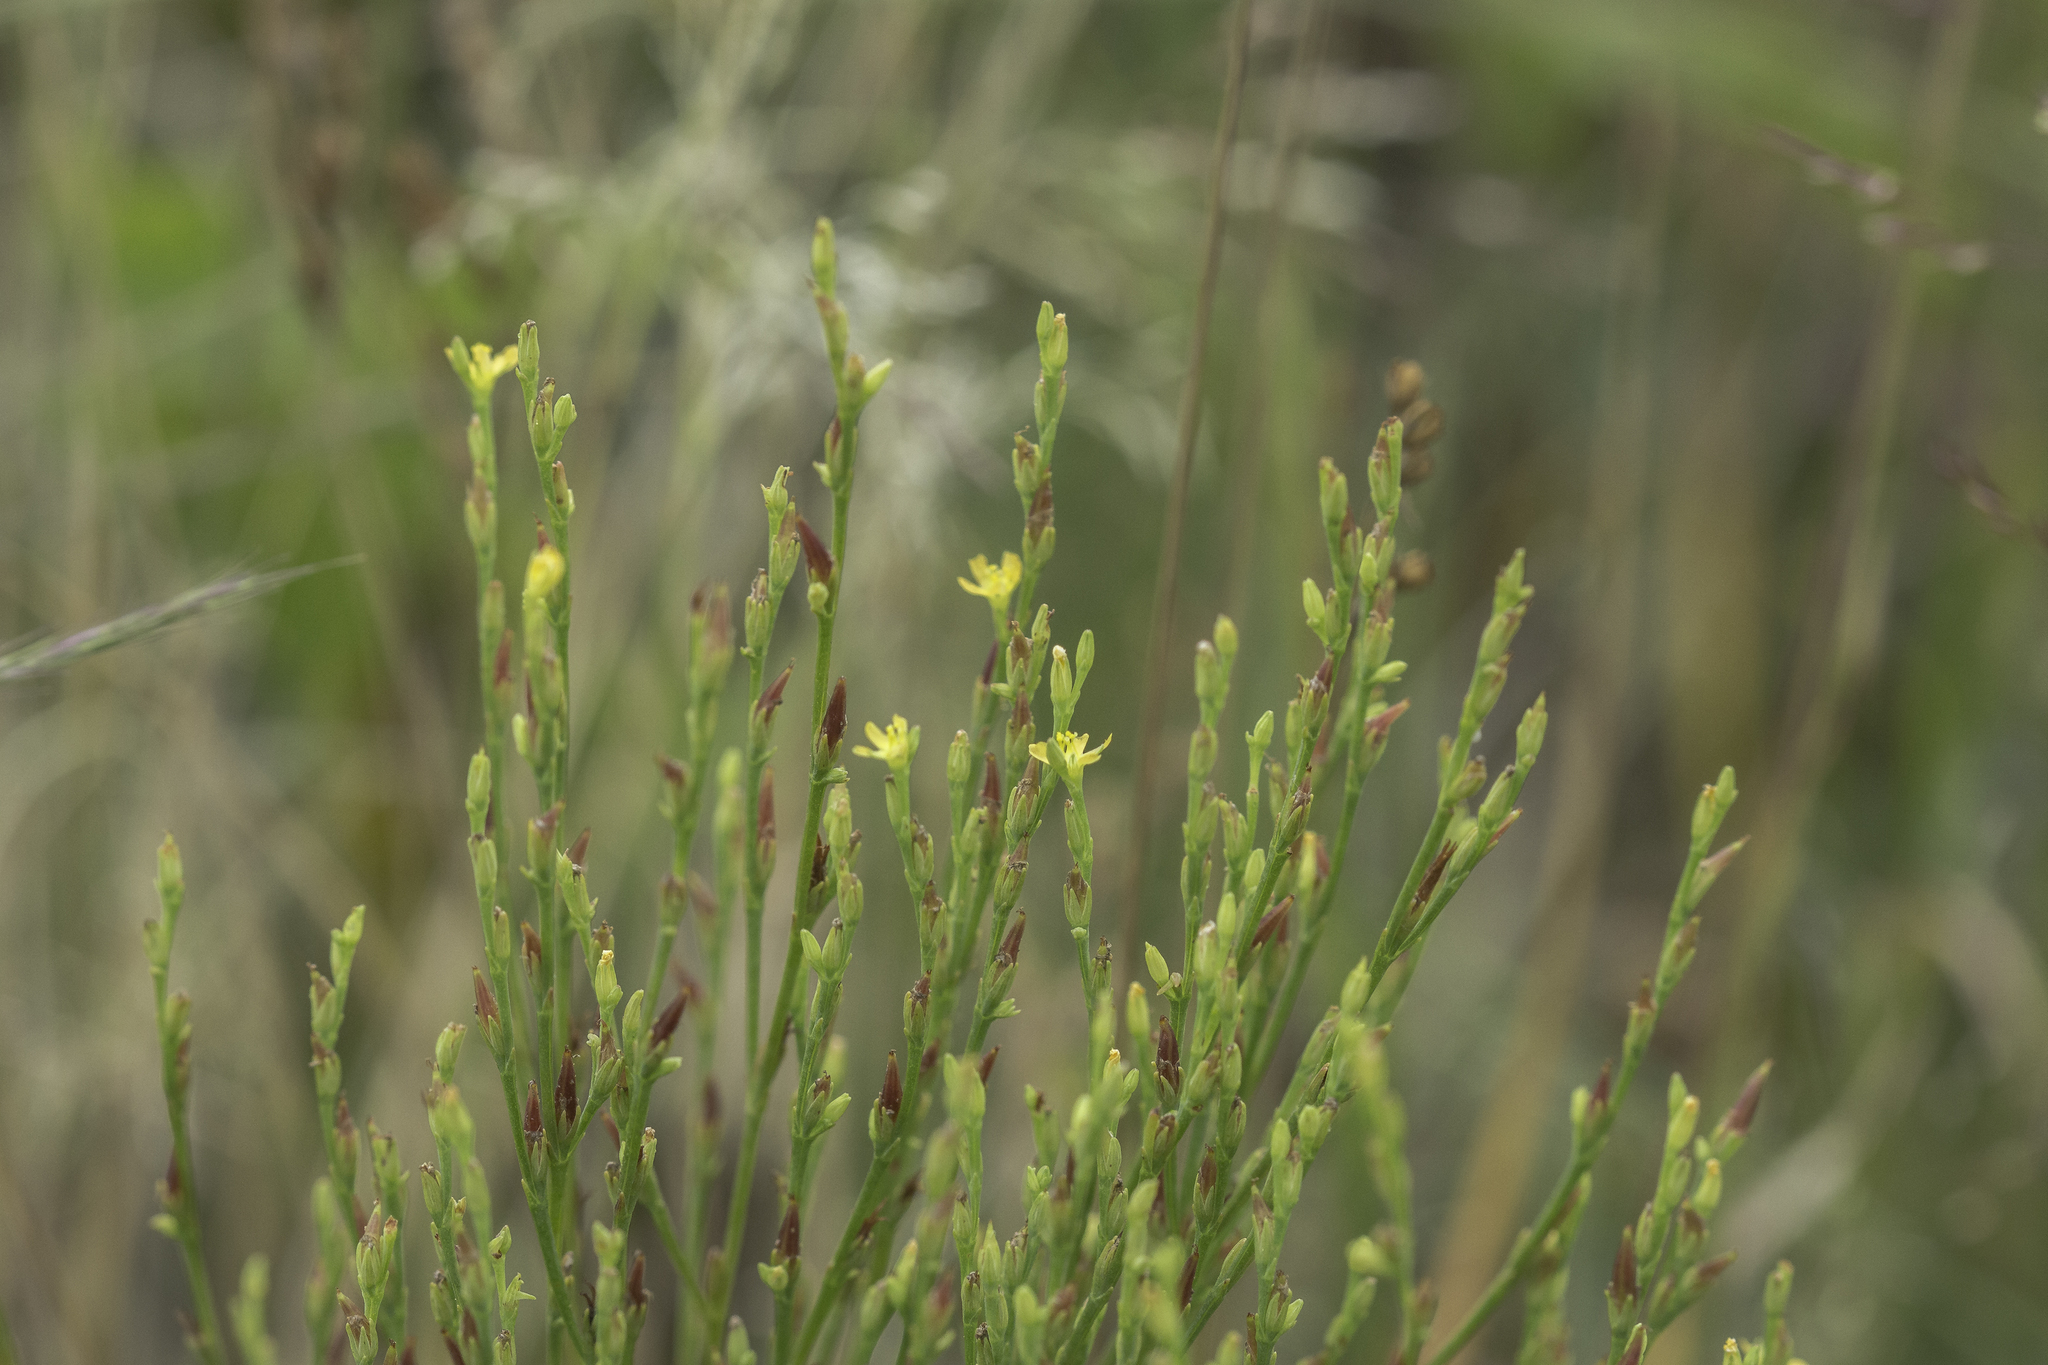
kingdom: Plantae
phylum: Tracheophyta
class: Magnoliopsida
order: Malpighiales
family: Hypericaceae
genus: Hypericum
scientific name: Hypericum gentianoides
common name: Gentian-leaved st. john's-wort
